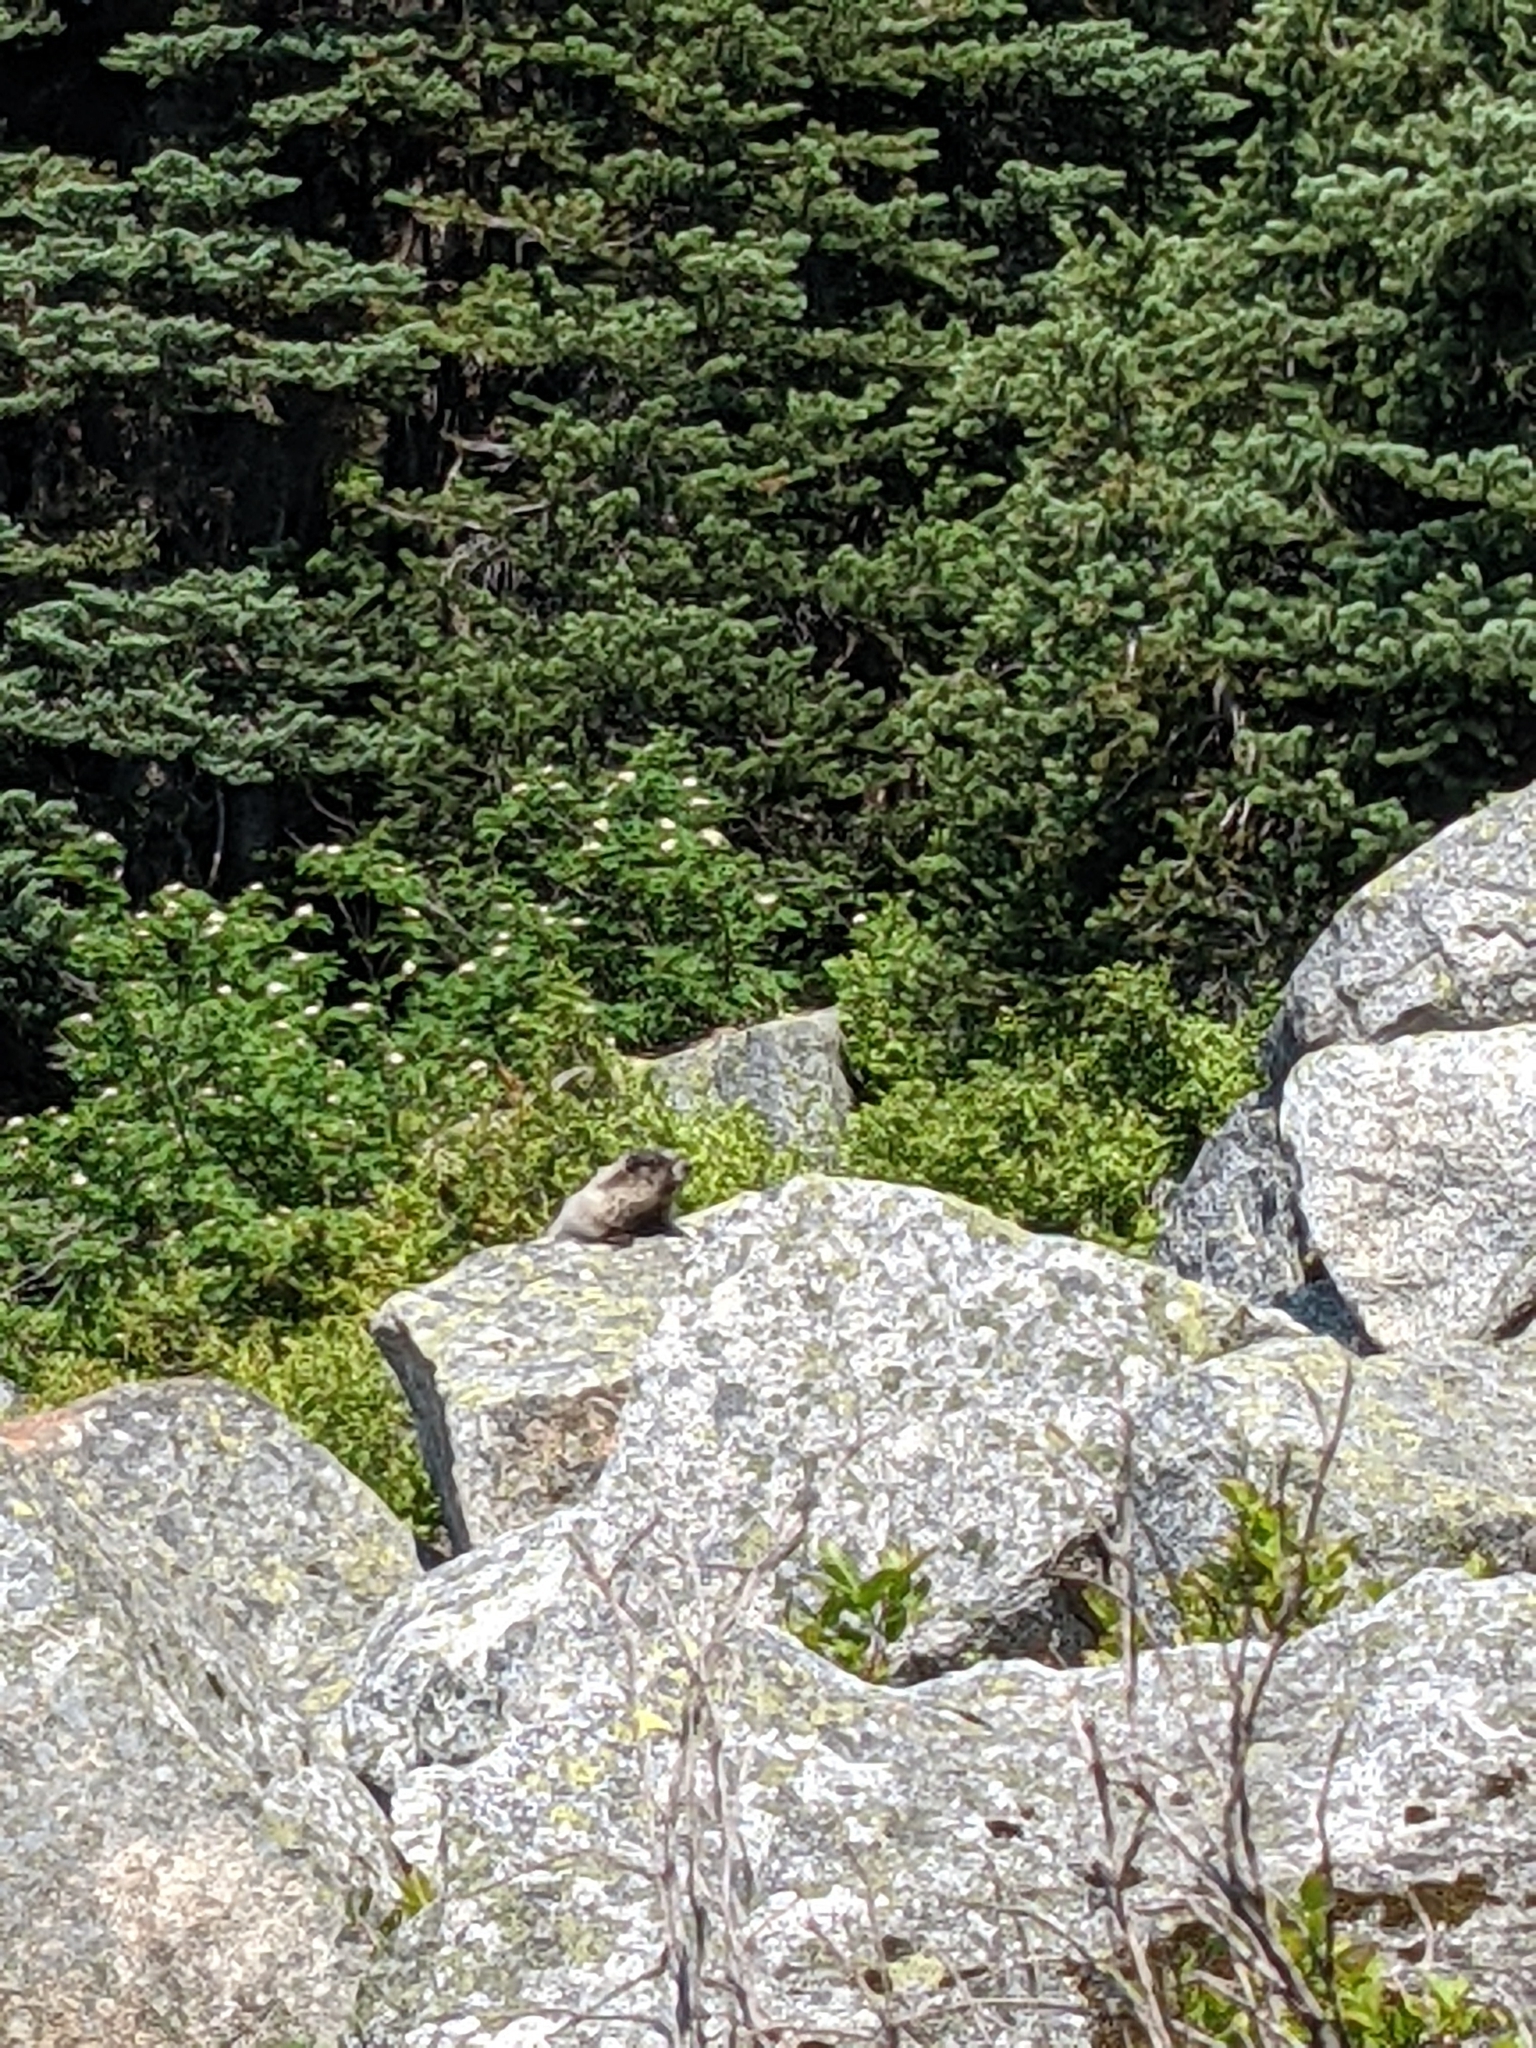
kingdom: Animalia
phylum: Chordata
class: Mammalia
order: Rodentia
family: Sciuridae
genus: Marmota
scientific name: Marmota caligata
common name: Hoary marmot
